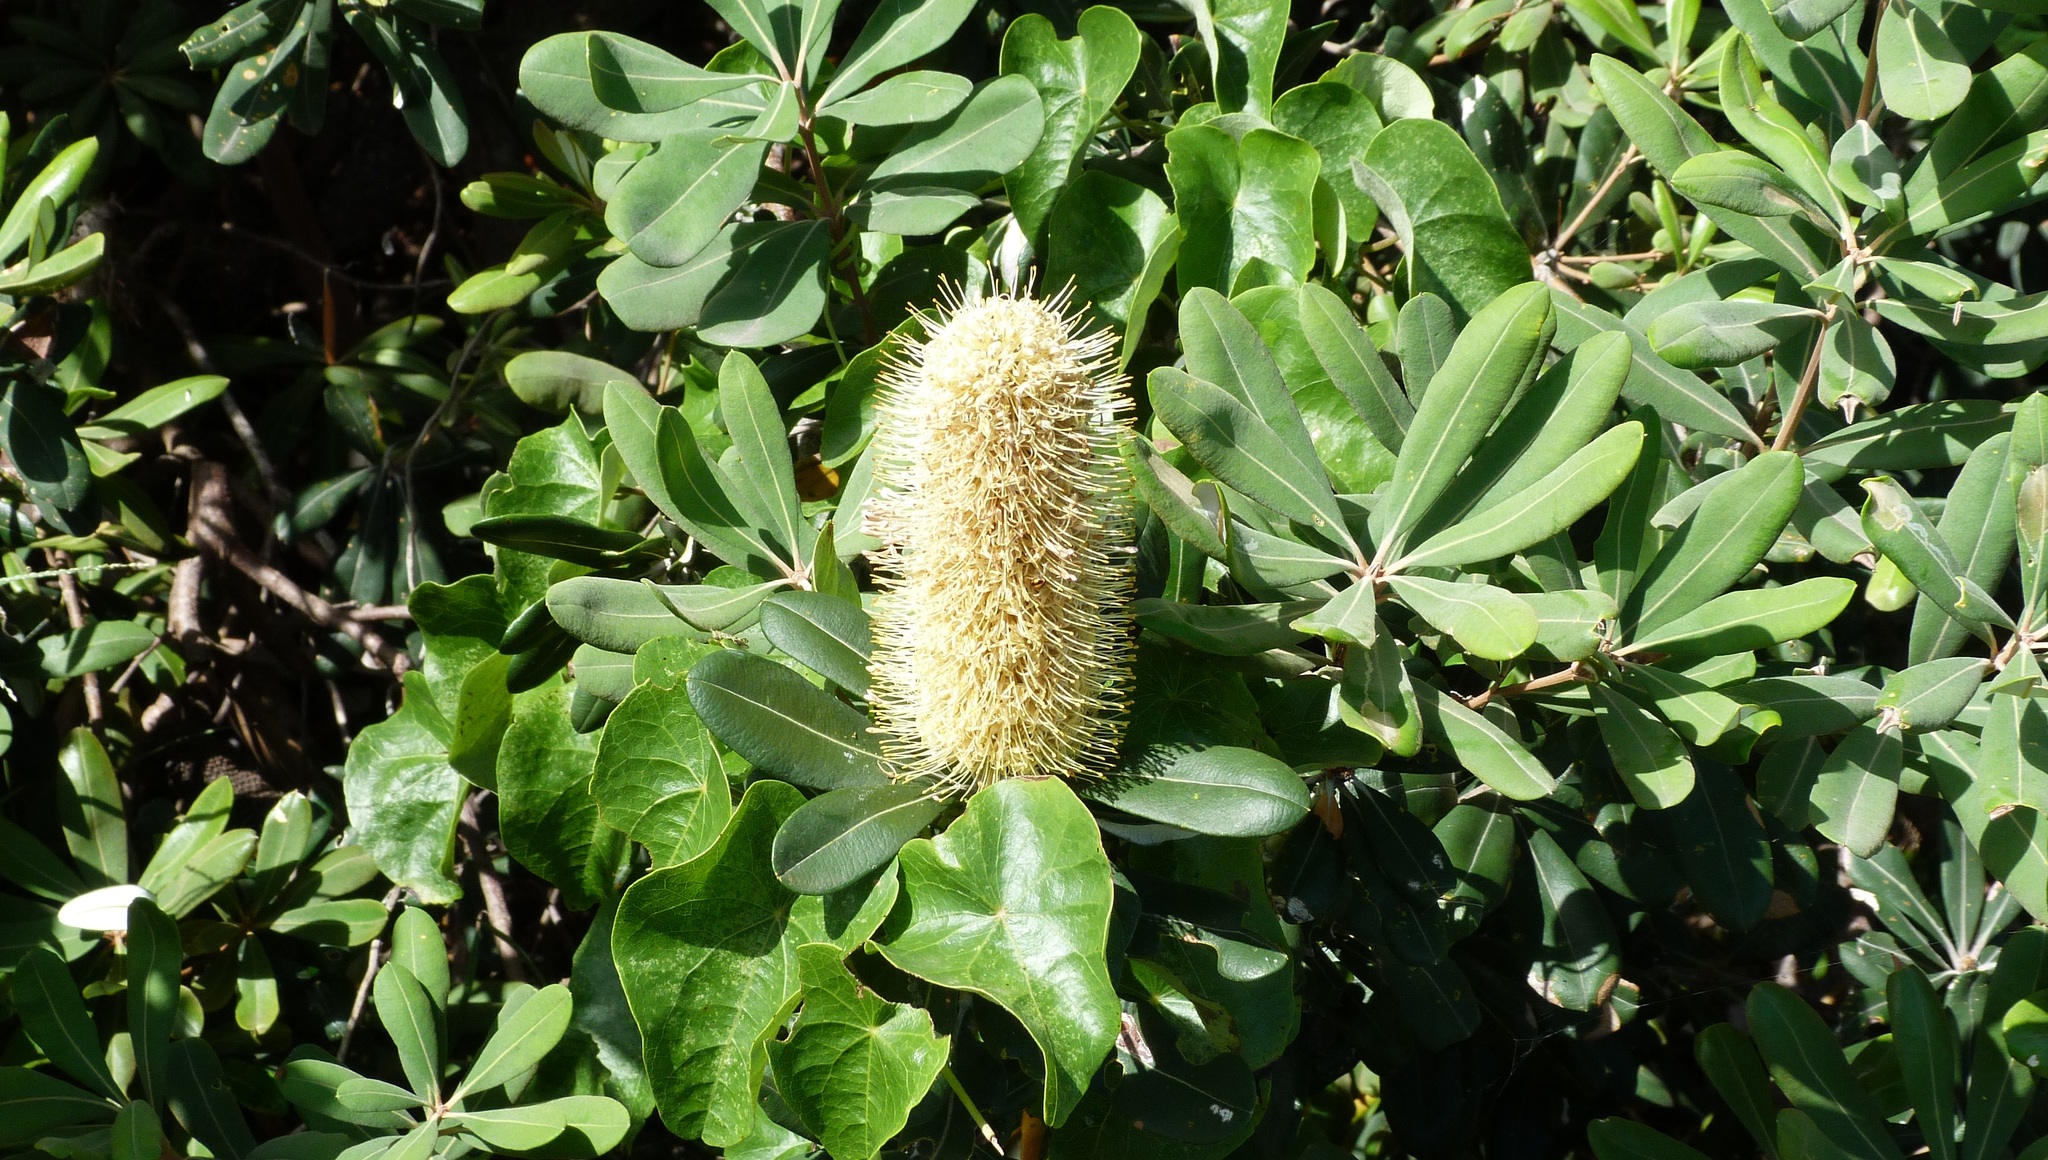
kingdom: Plantae
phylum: Tracheophyta
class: Magnoliopsida
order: Proteales
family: Proteaceae
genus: Banksia
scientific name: Banksia integrifolia
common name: White-honeysuckle
